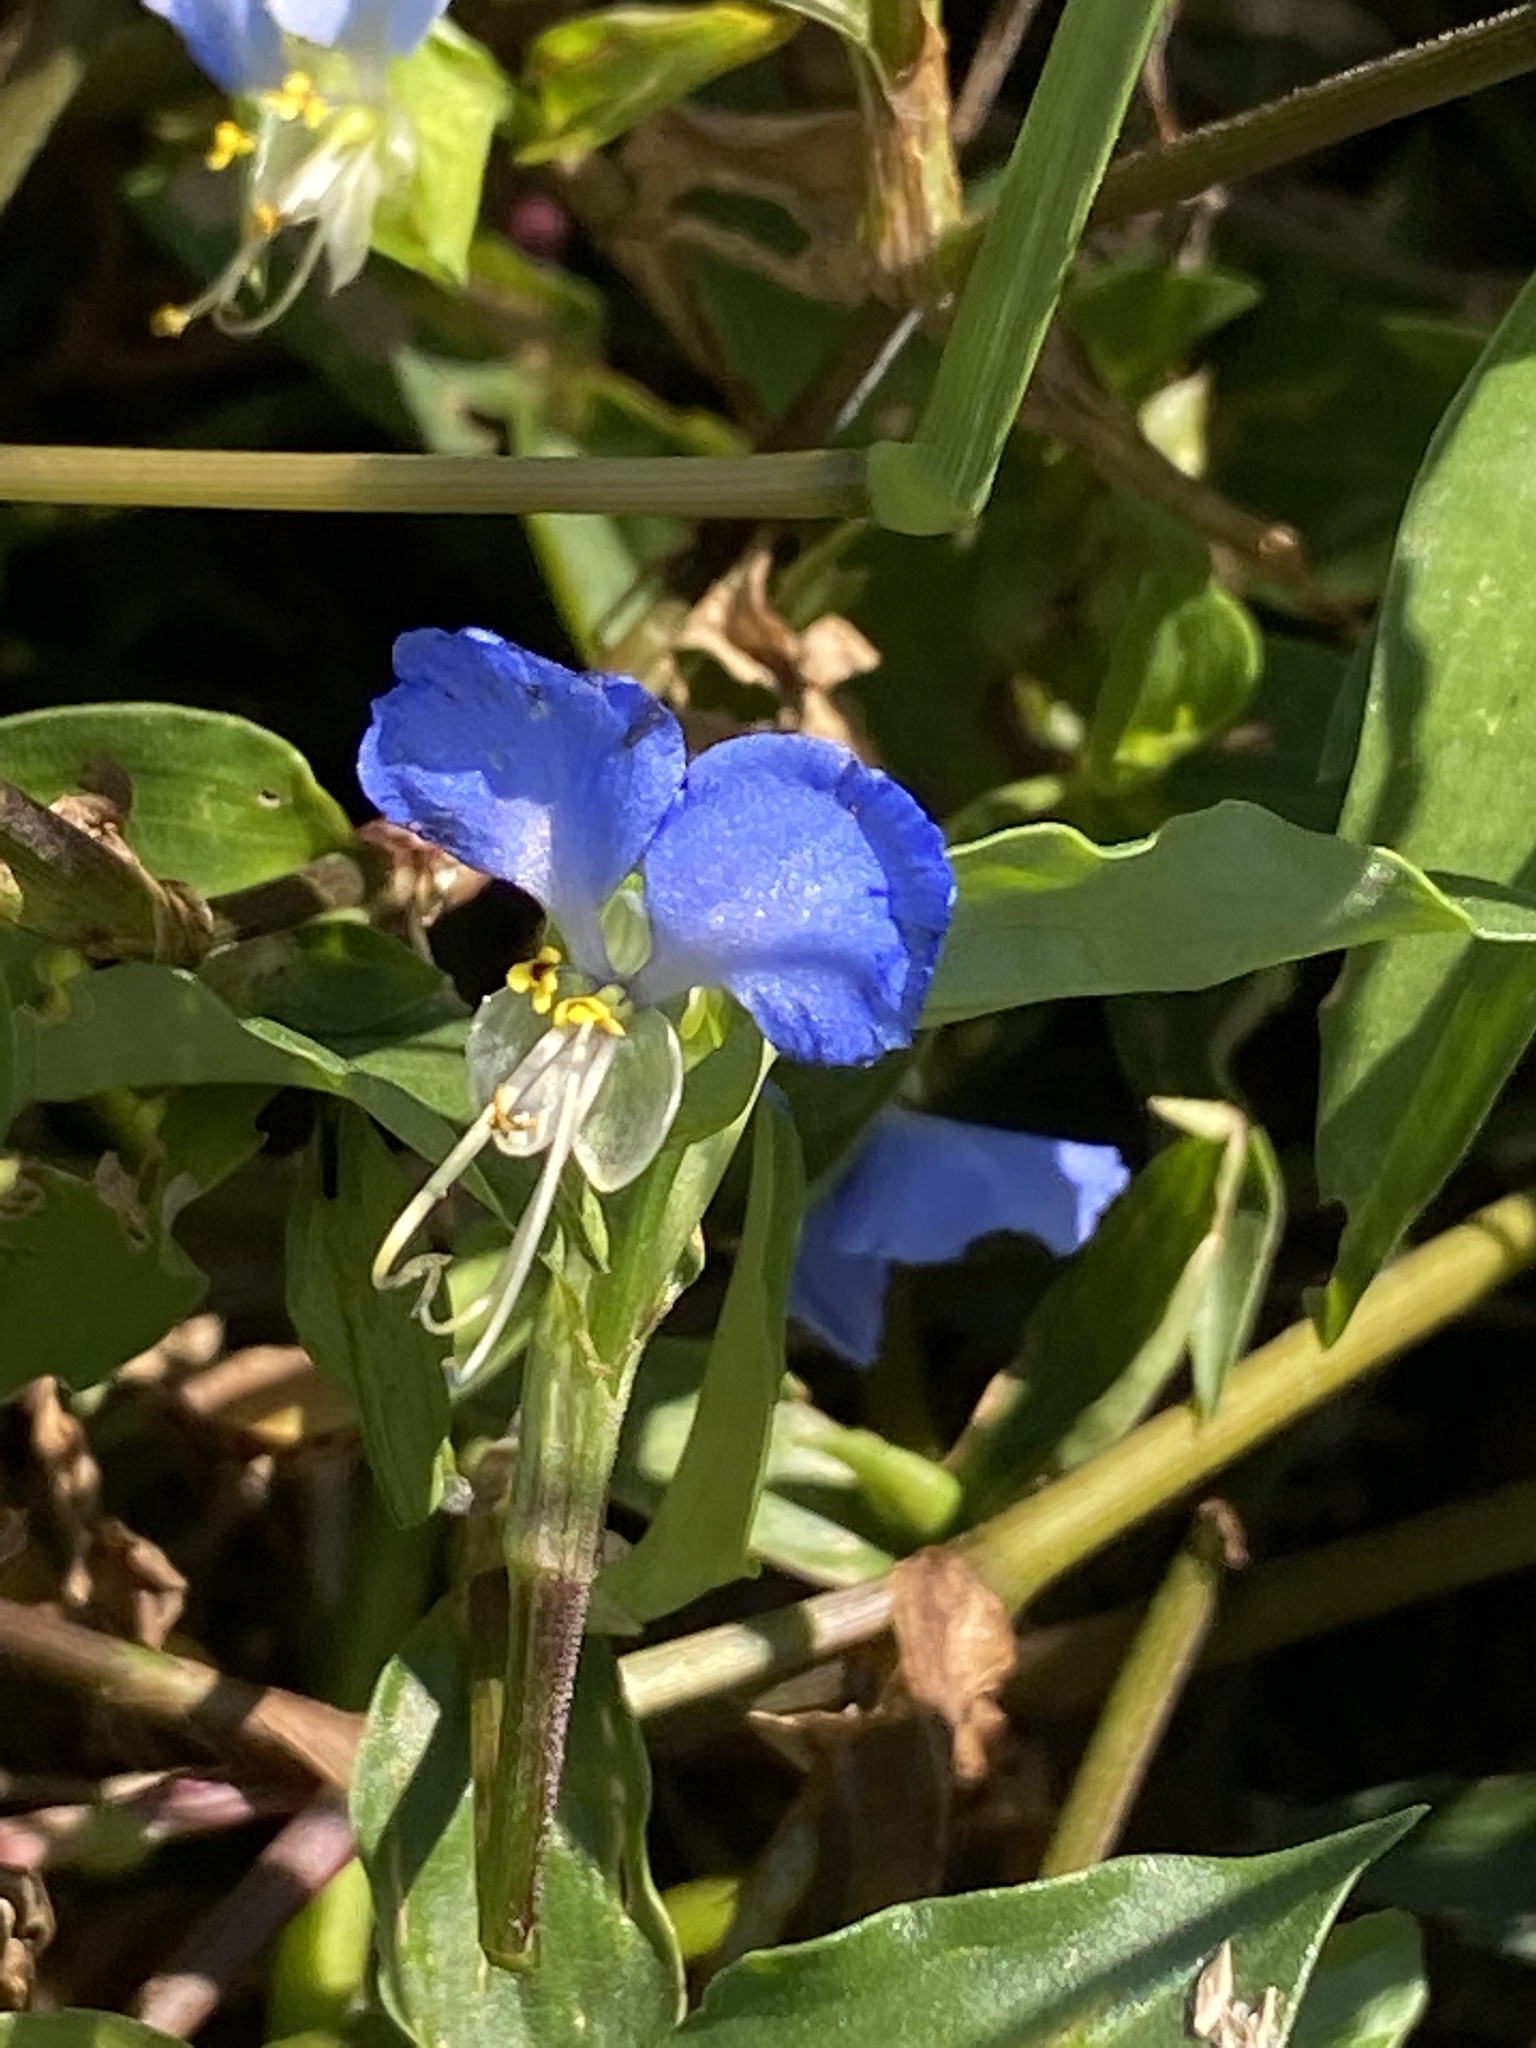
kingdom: Plantae
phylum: Tracheophyta
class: Liliopsida
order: Commelinales
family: Commelinaceae
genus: Commelina
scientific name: Commelina communis
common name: Asiatic dayflower
